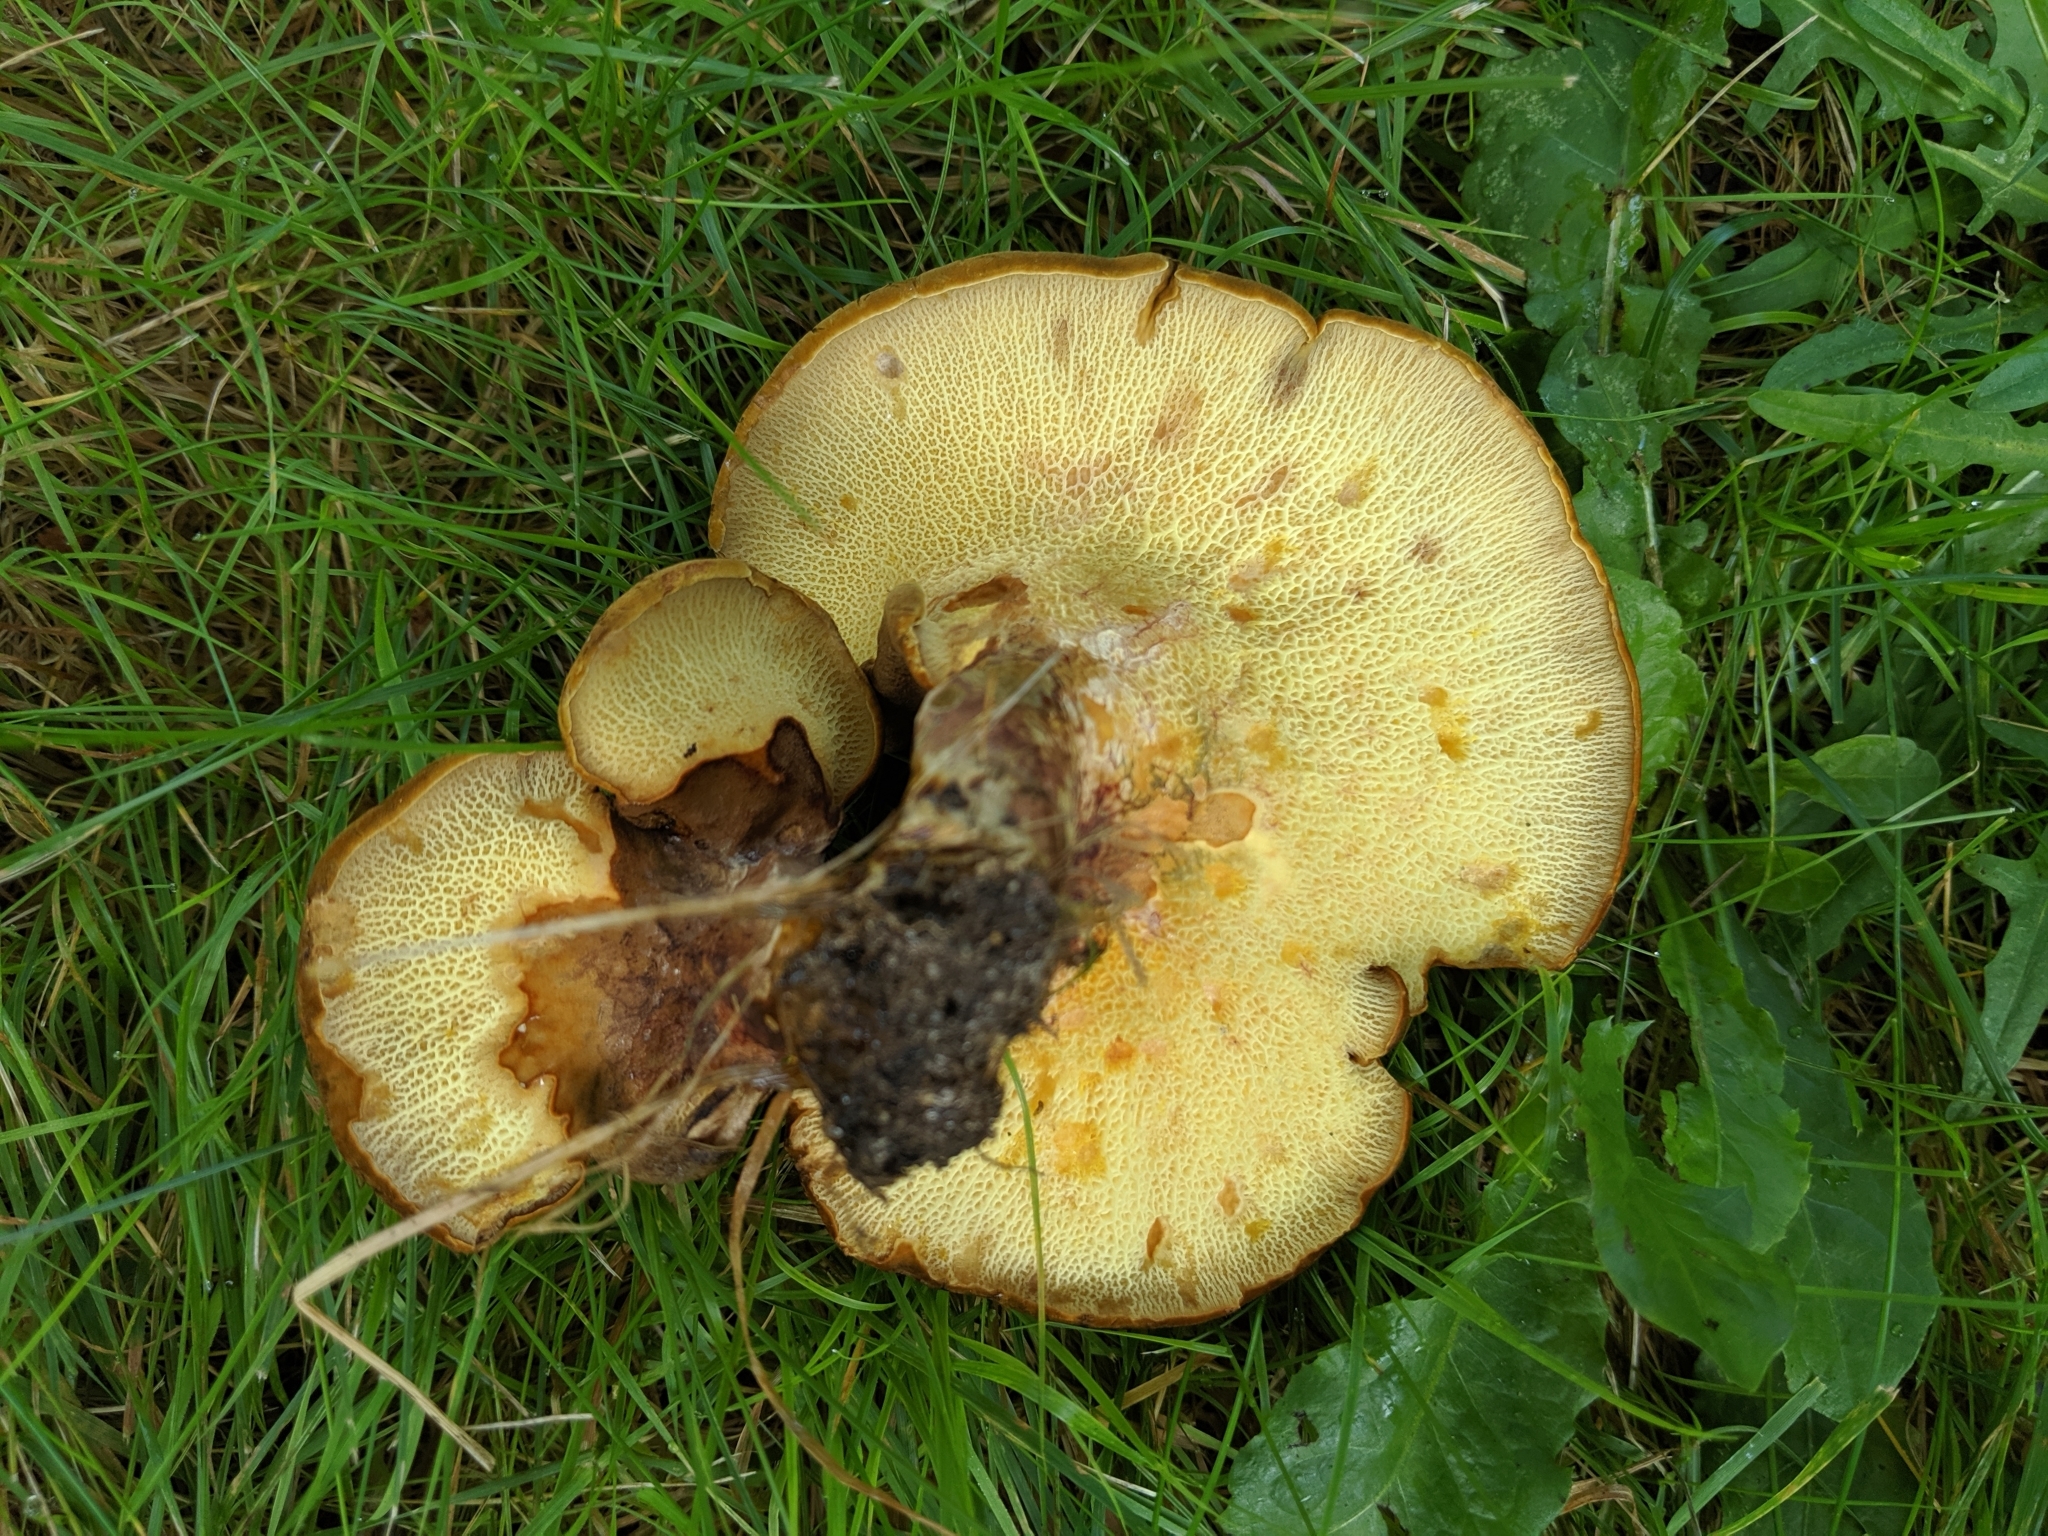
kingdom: Fungi
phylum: Basidiomycota
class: Agaricomycetes
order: Boletales
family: Boletinellaceae
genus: Boletinellus
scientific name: Boletinellus merulioides
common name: Ash tree bolete
